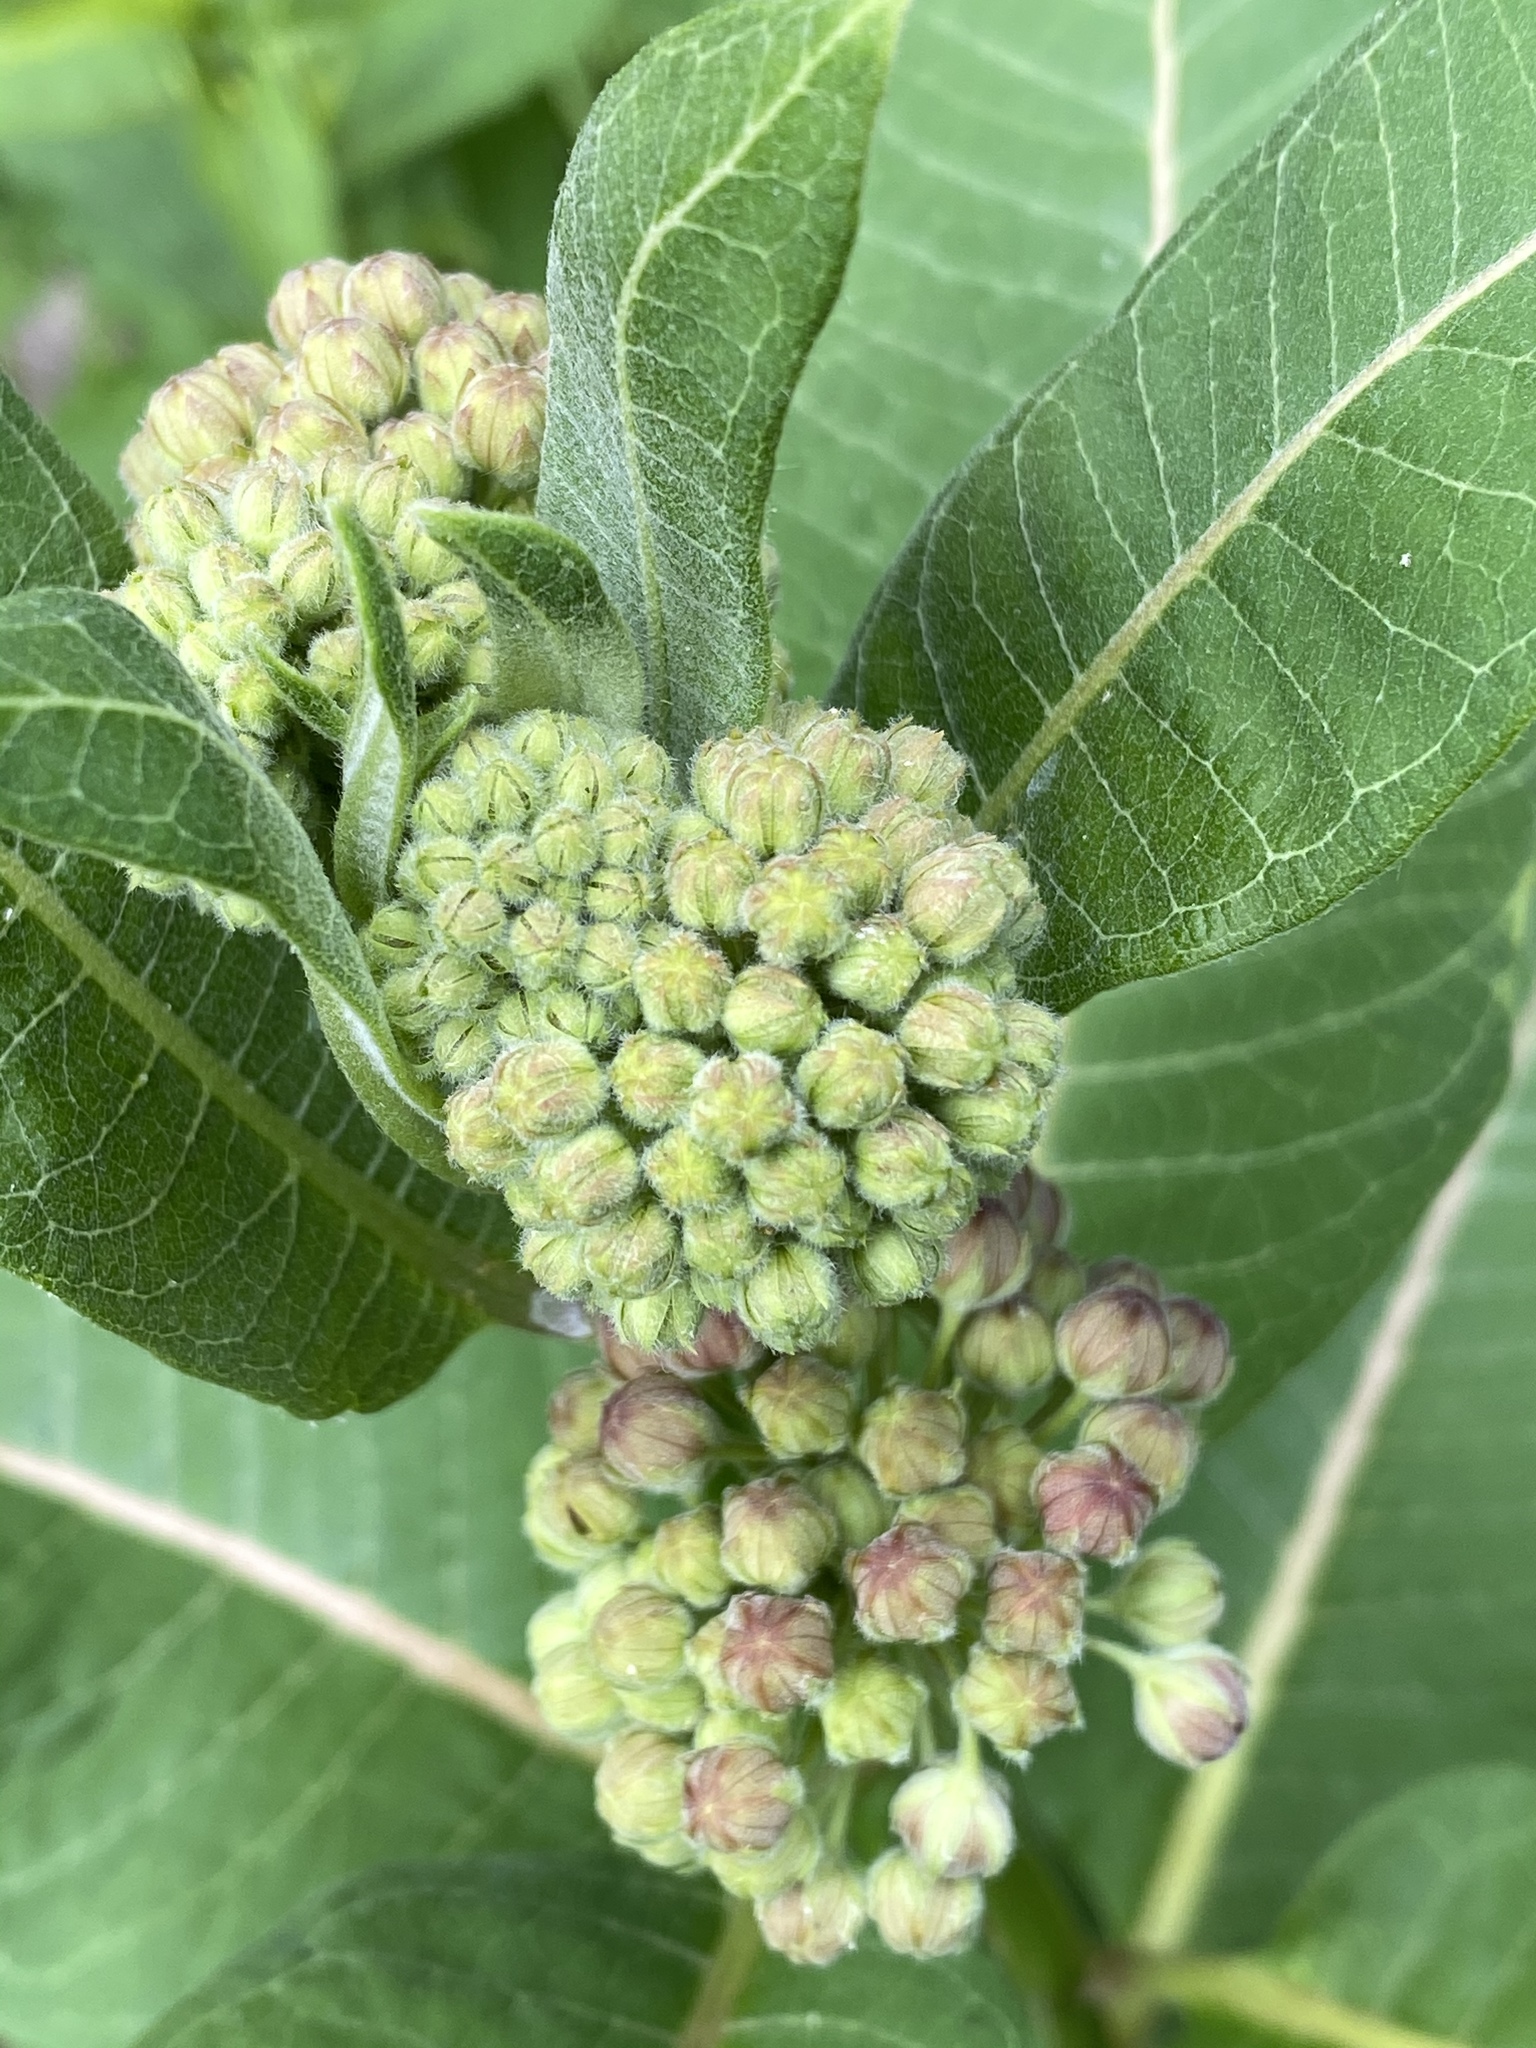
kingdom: Plantae
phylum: Tracheophyta
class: Magnoliopsida
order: Gentianales
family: Apocynaceae
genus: Asclepias
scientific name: Asclepias syriaca
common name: Common milkweed
